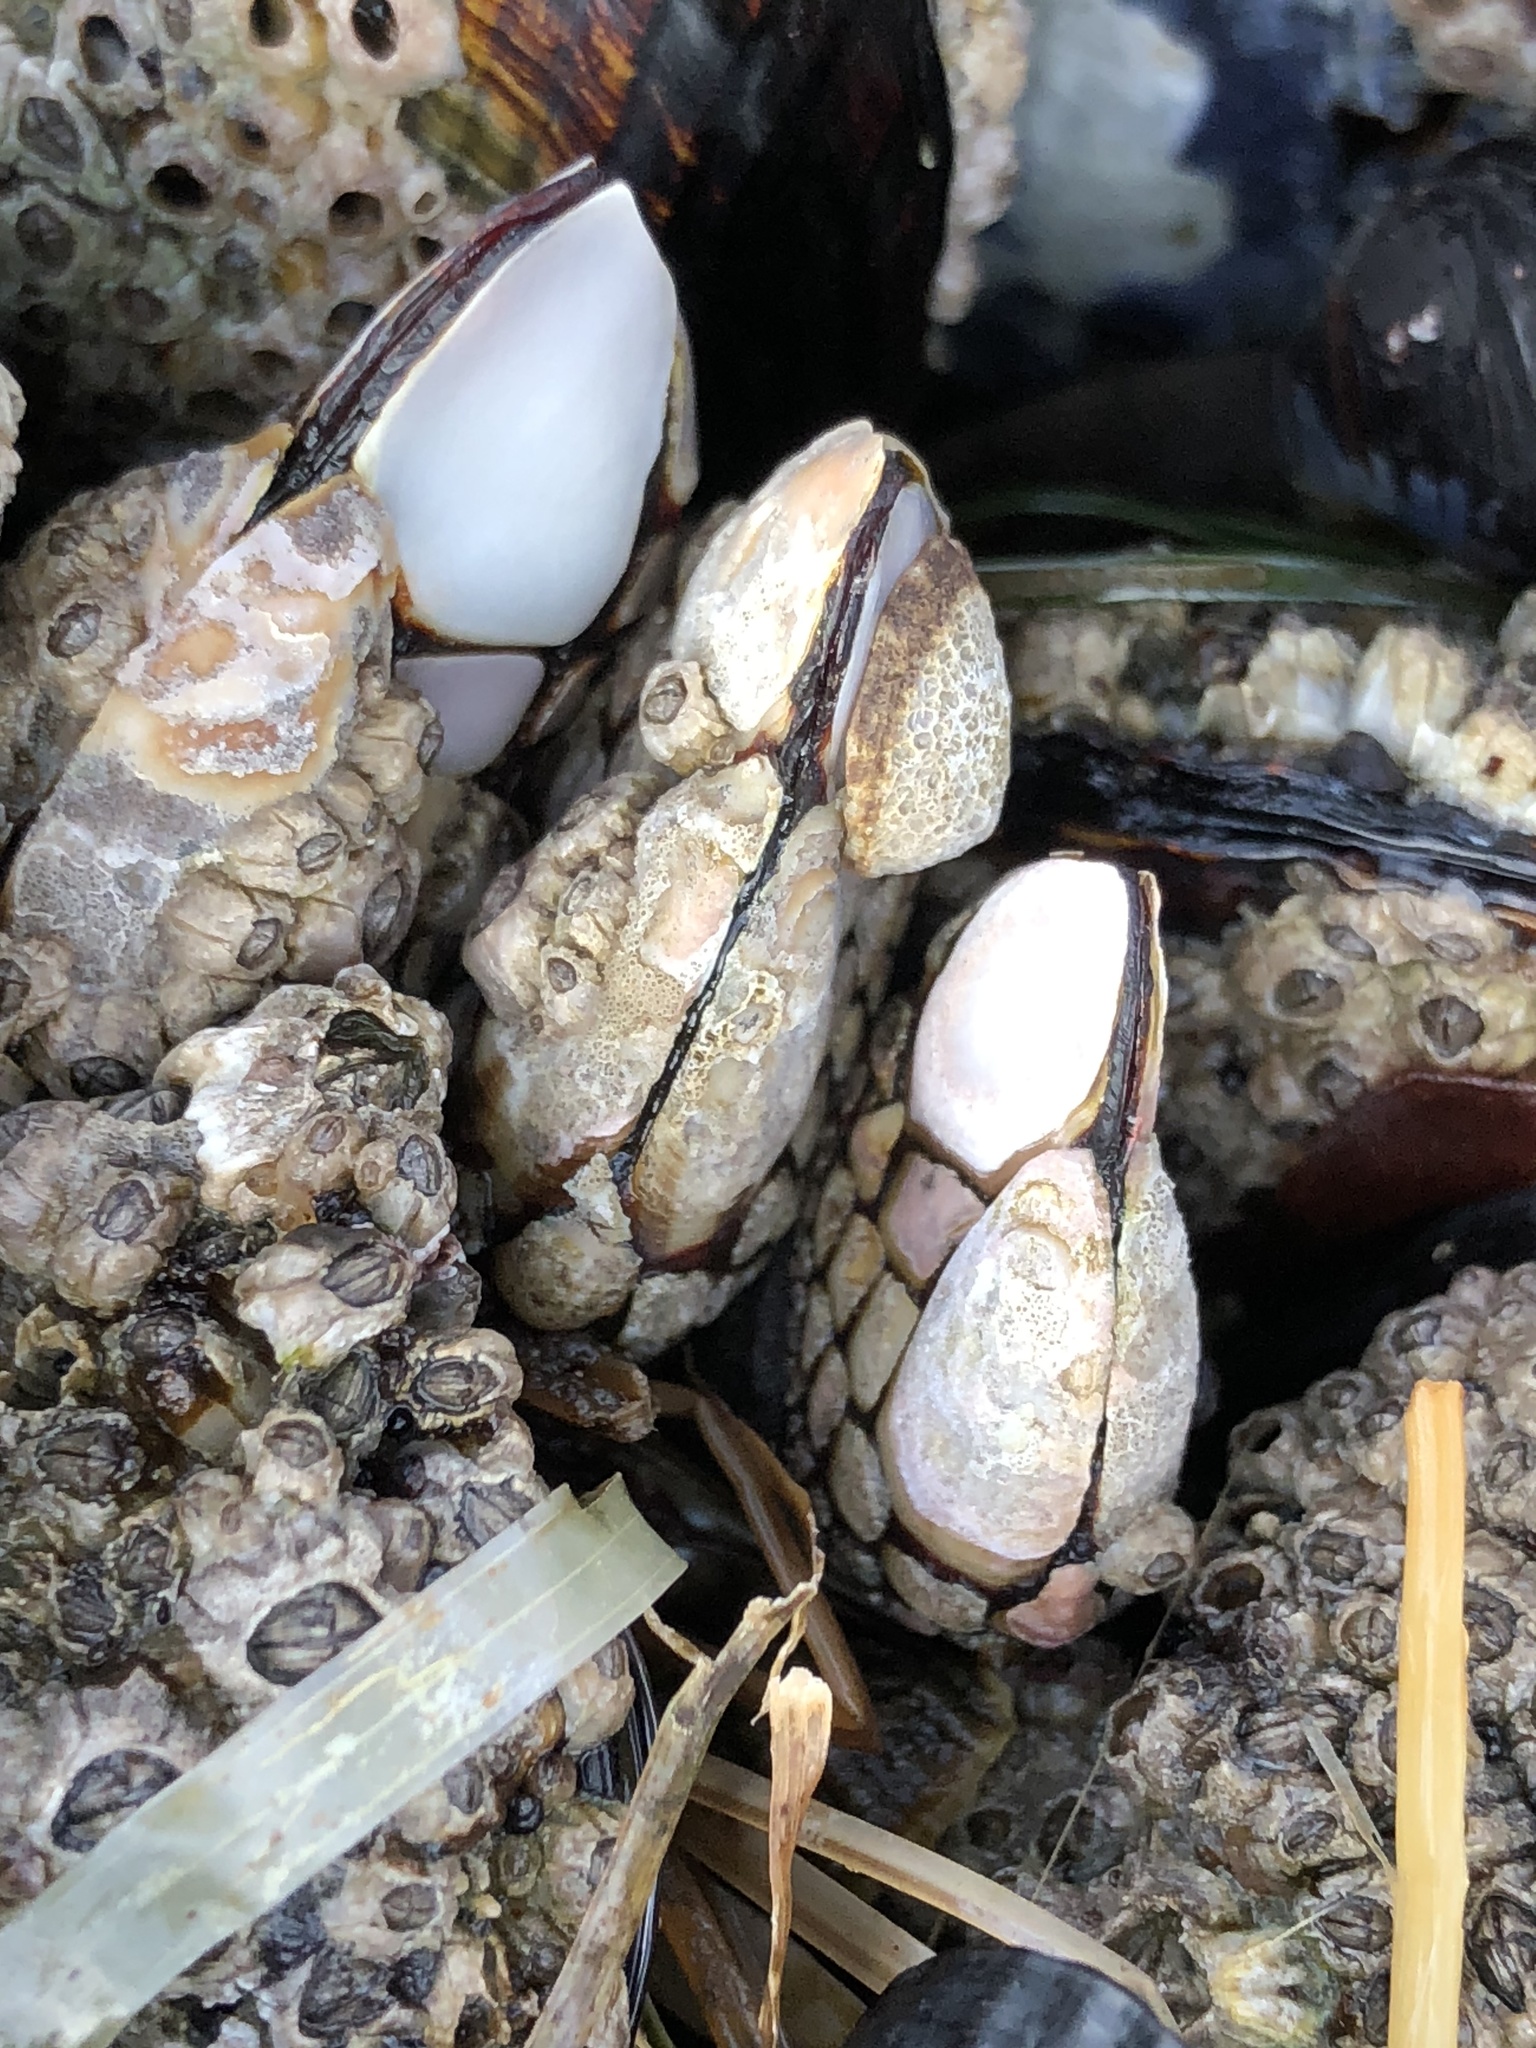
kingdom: Animalia
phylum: Arthropoda
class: Maxillopoda
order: Pedunculata
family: Pollicipedidae
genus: Pollicipes
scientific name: Pollicipes polymerus
